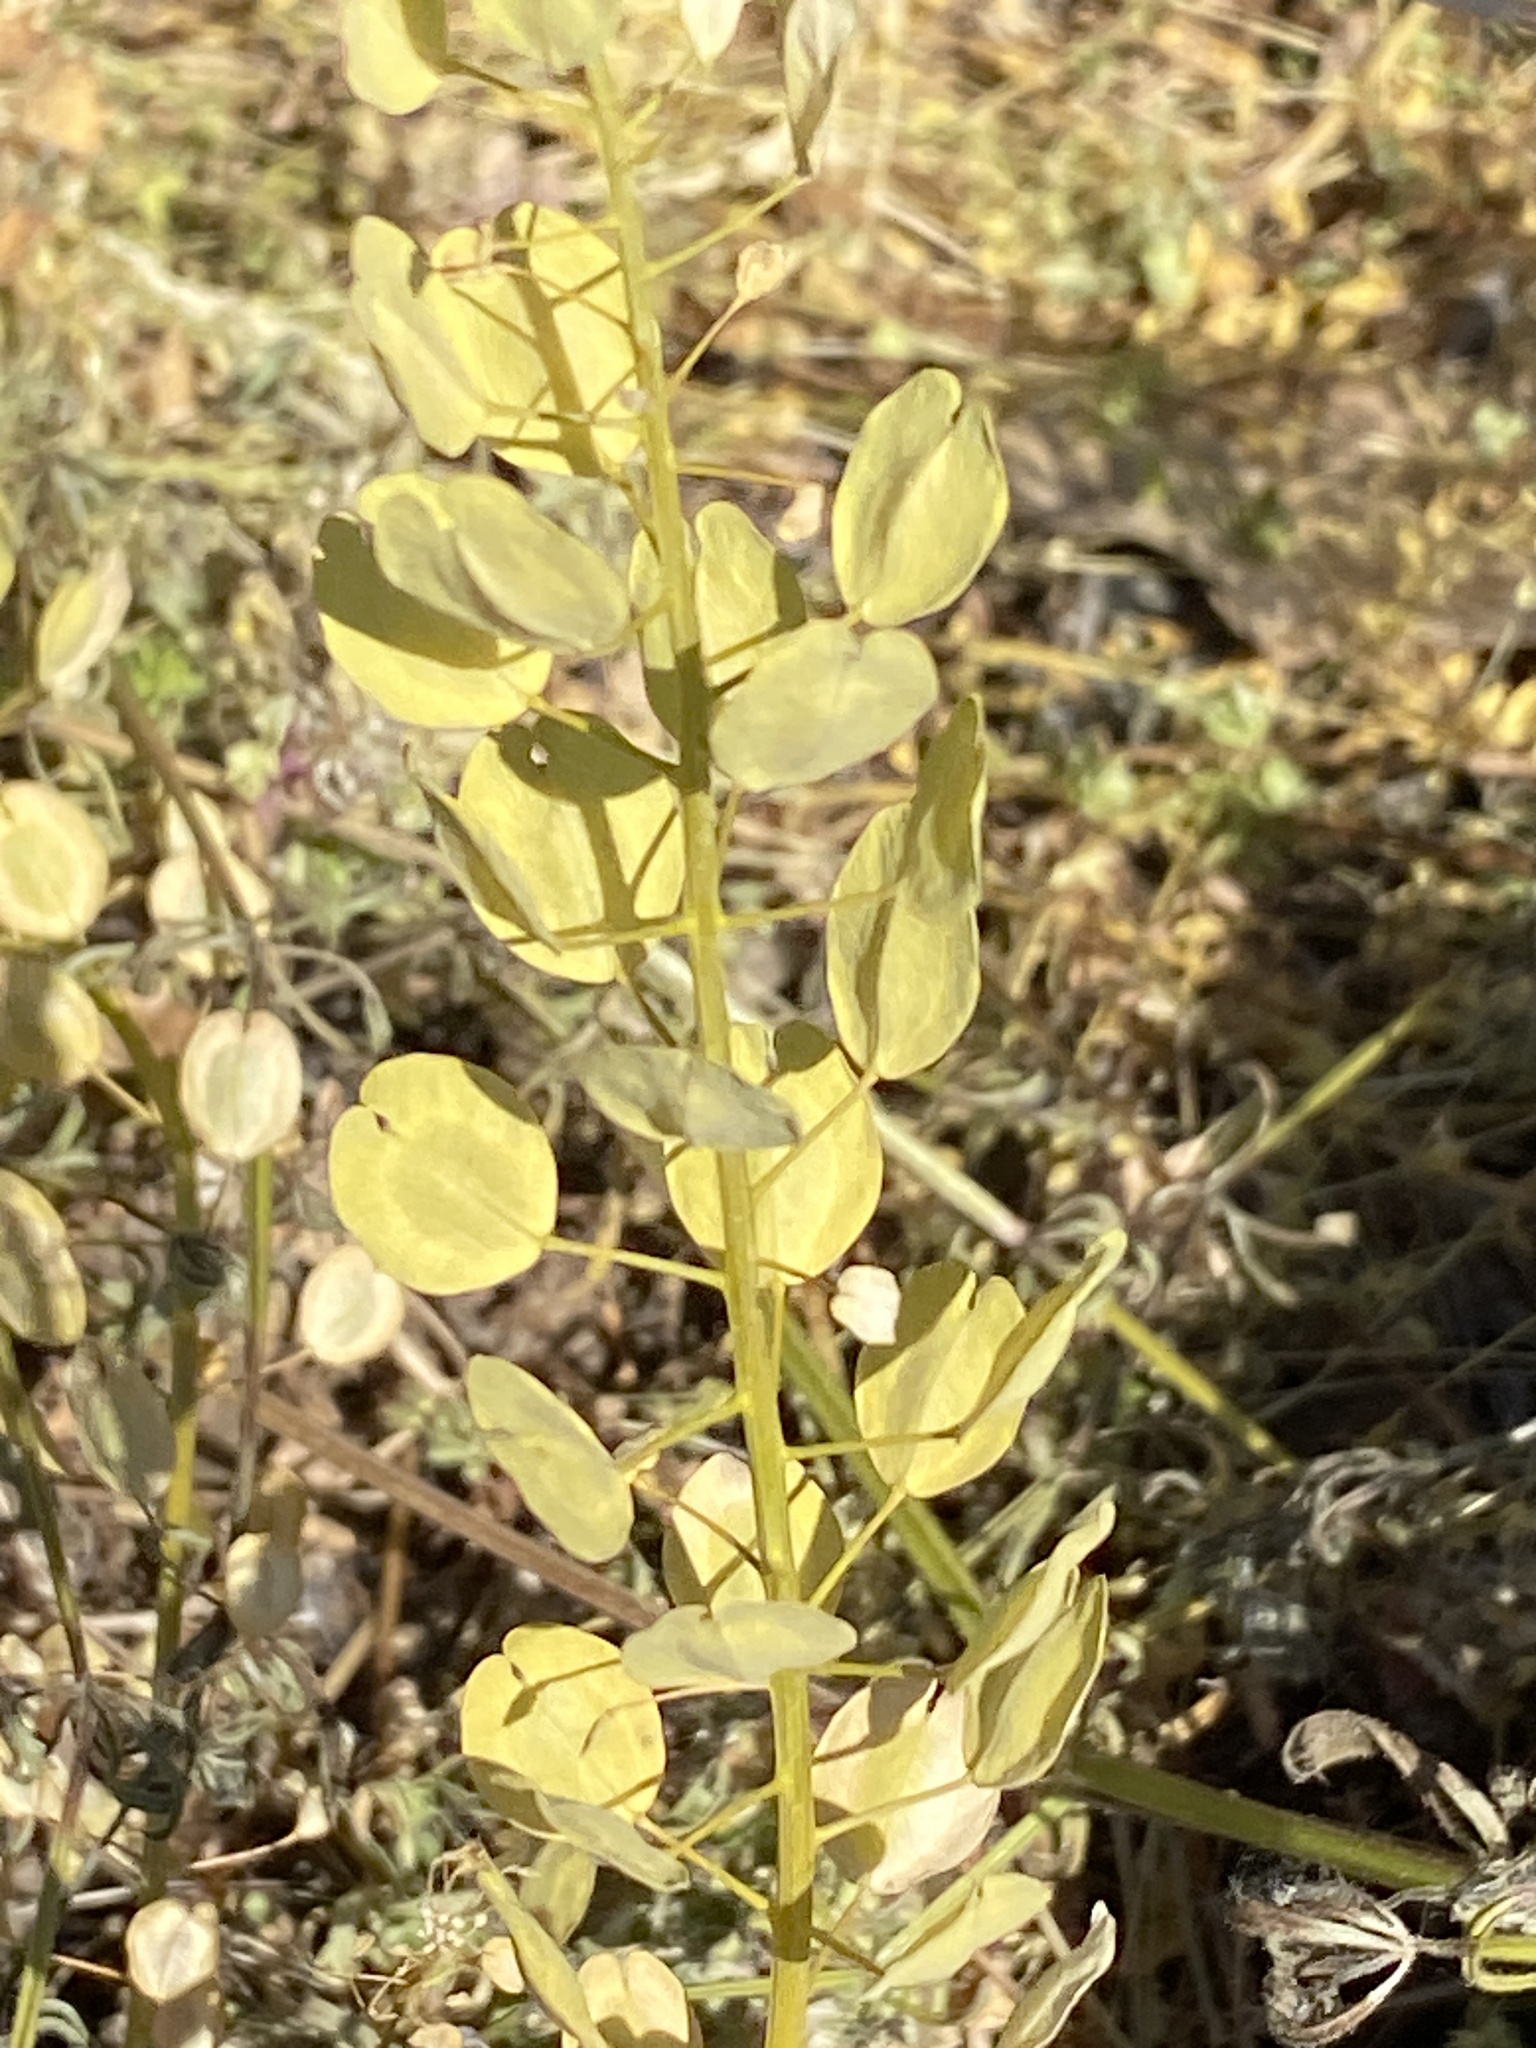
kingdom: Plantae
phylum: Tracheophyta
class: Magnoliopsida
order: Brassicales
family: Brassicaceae
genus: Thlaspi
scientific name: Thlaspi arvense
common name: Field pennycress
